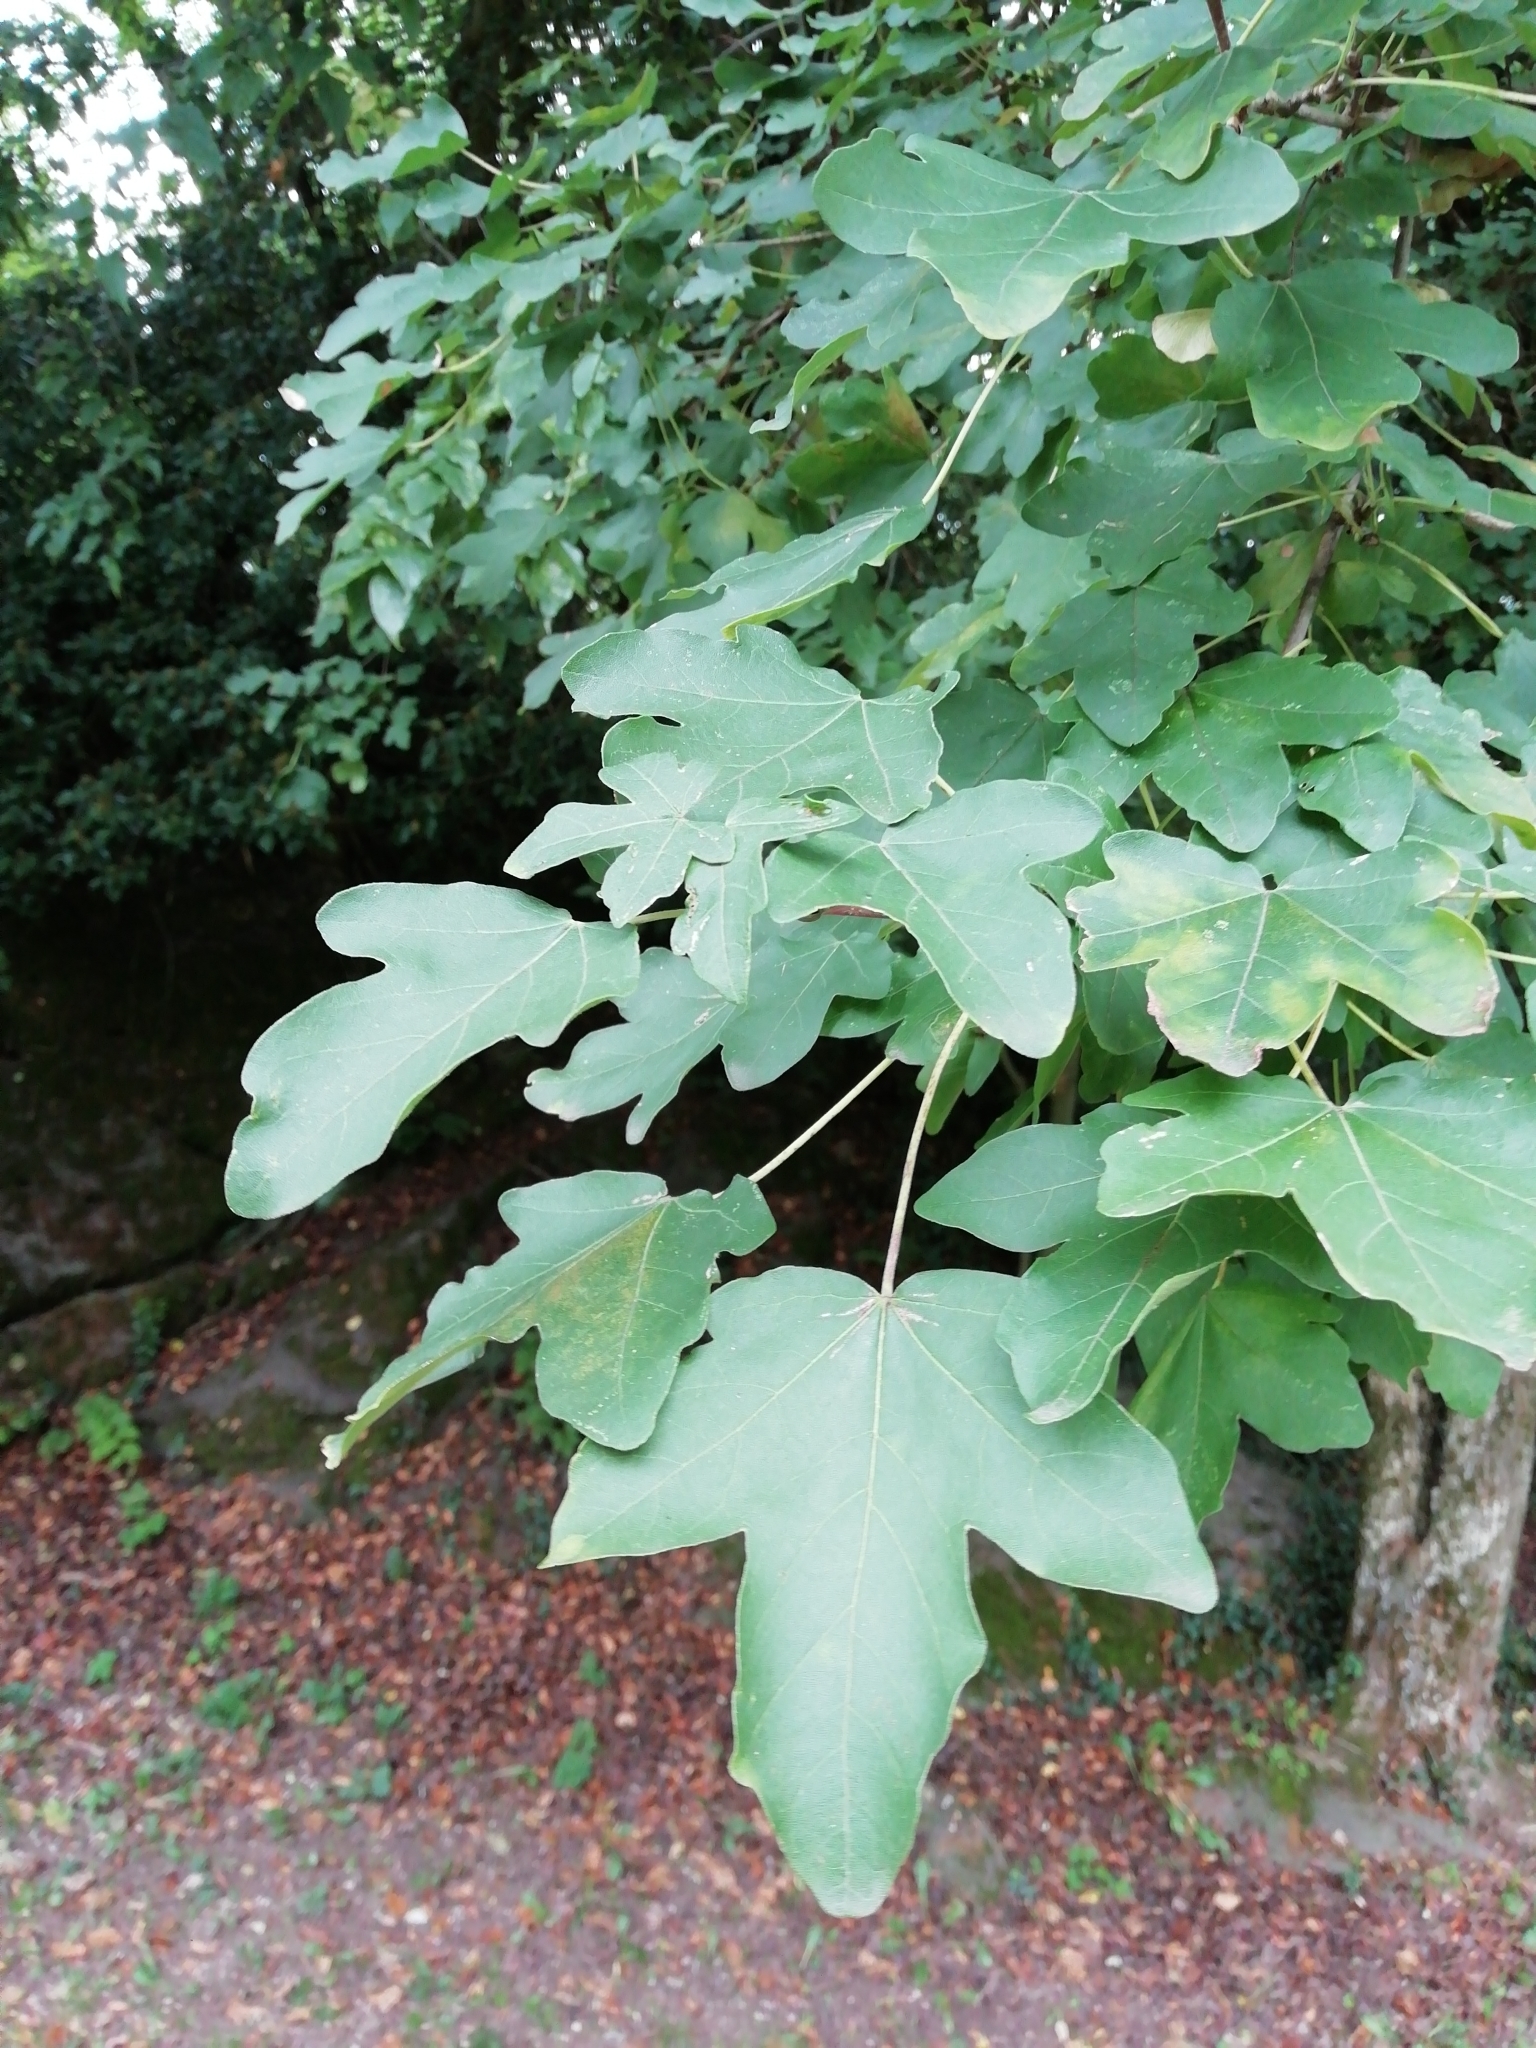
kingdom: Plantae
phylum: Tracheophyta
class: Magnoliopsida
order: Sapindales
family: Sapindaceae
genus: Acer
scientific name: Acer campestre
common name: Field maple
